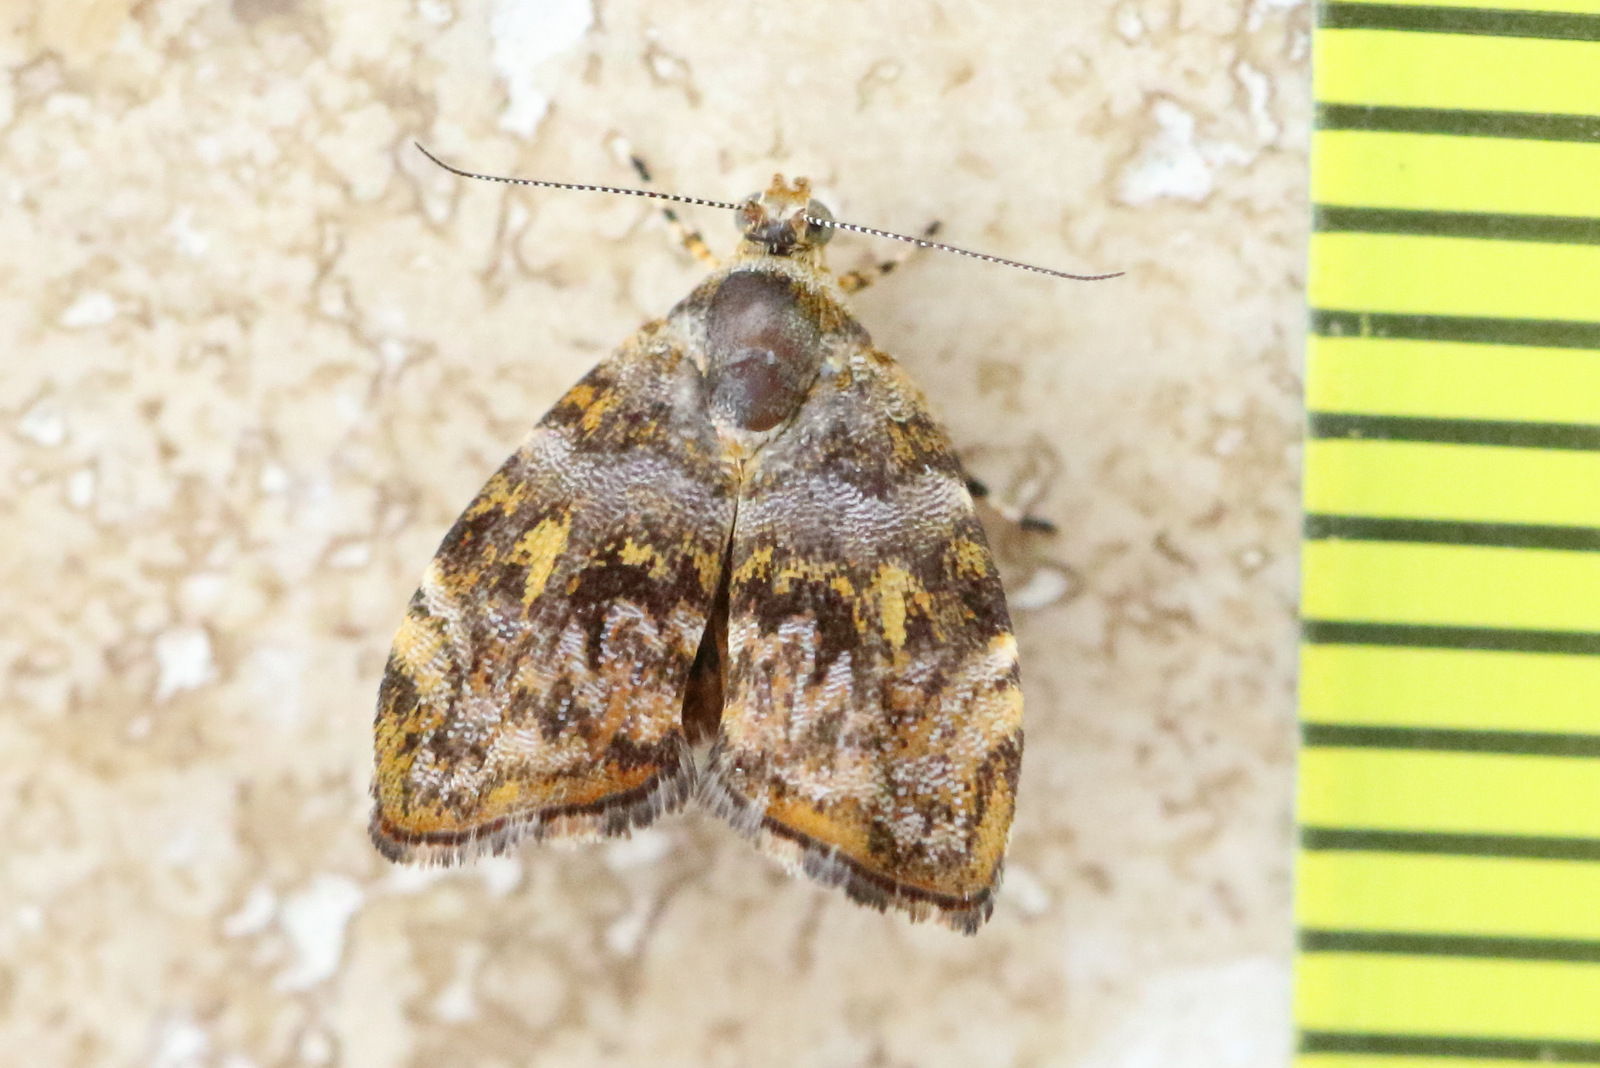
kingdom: Animalia
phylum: Arthropoda
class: Insecta
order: Lepidoptera
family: Choreutidae
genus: Choreutis
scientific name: Choreutis ophiosema
